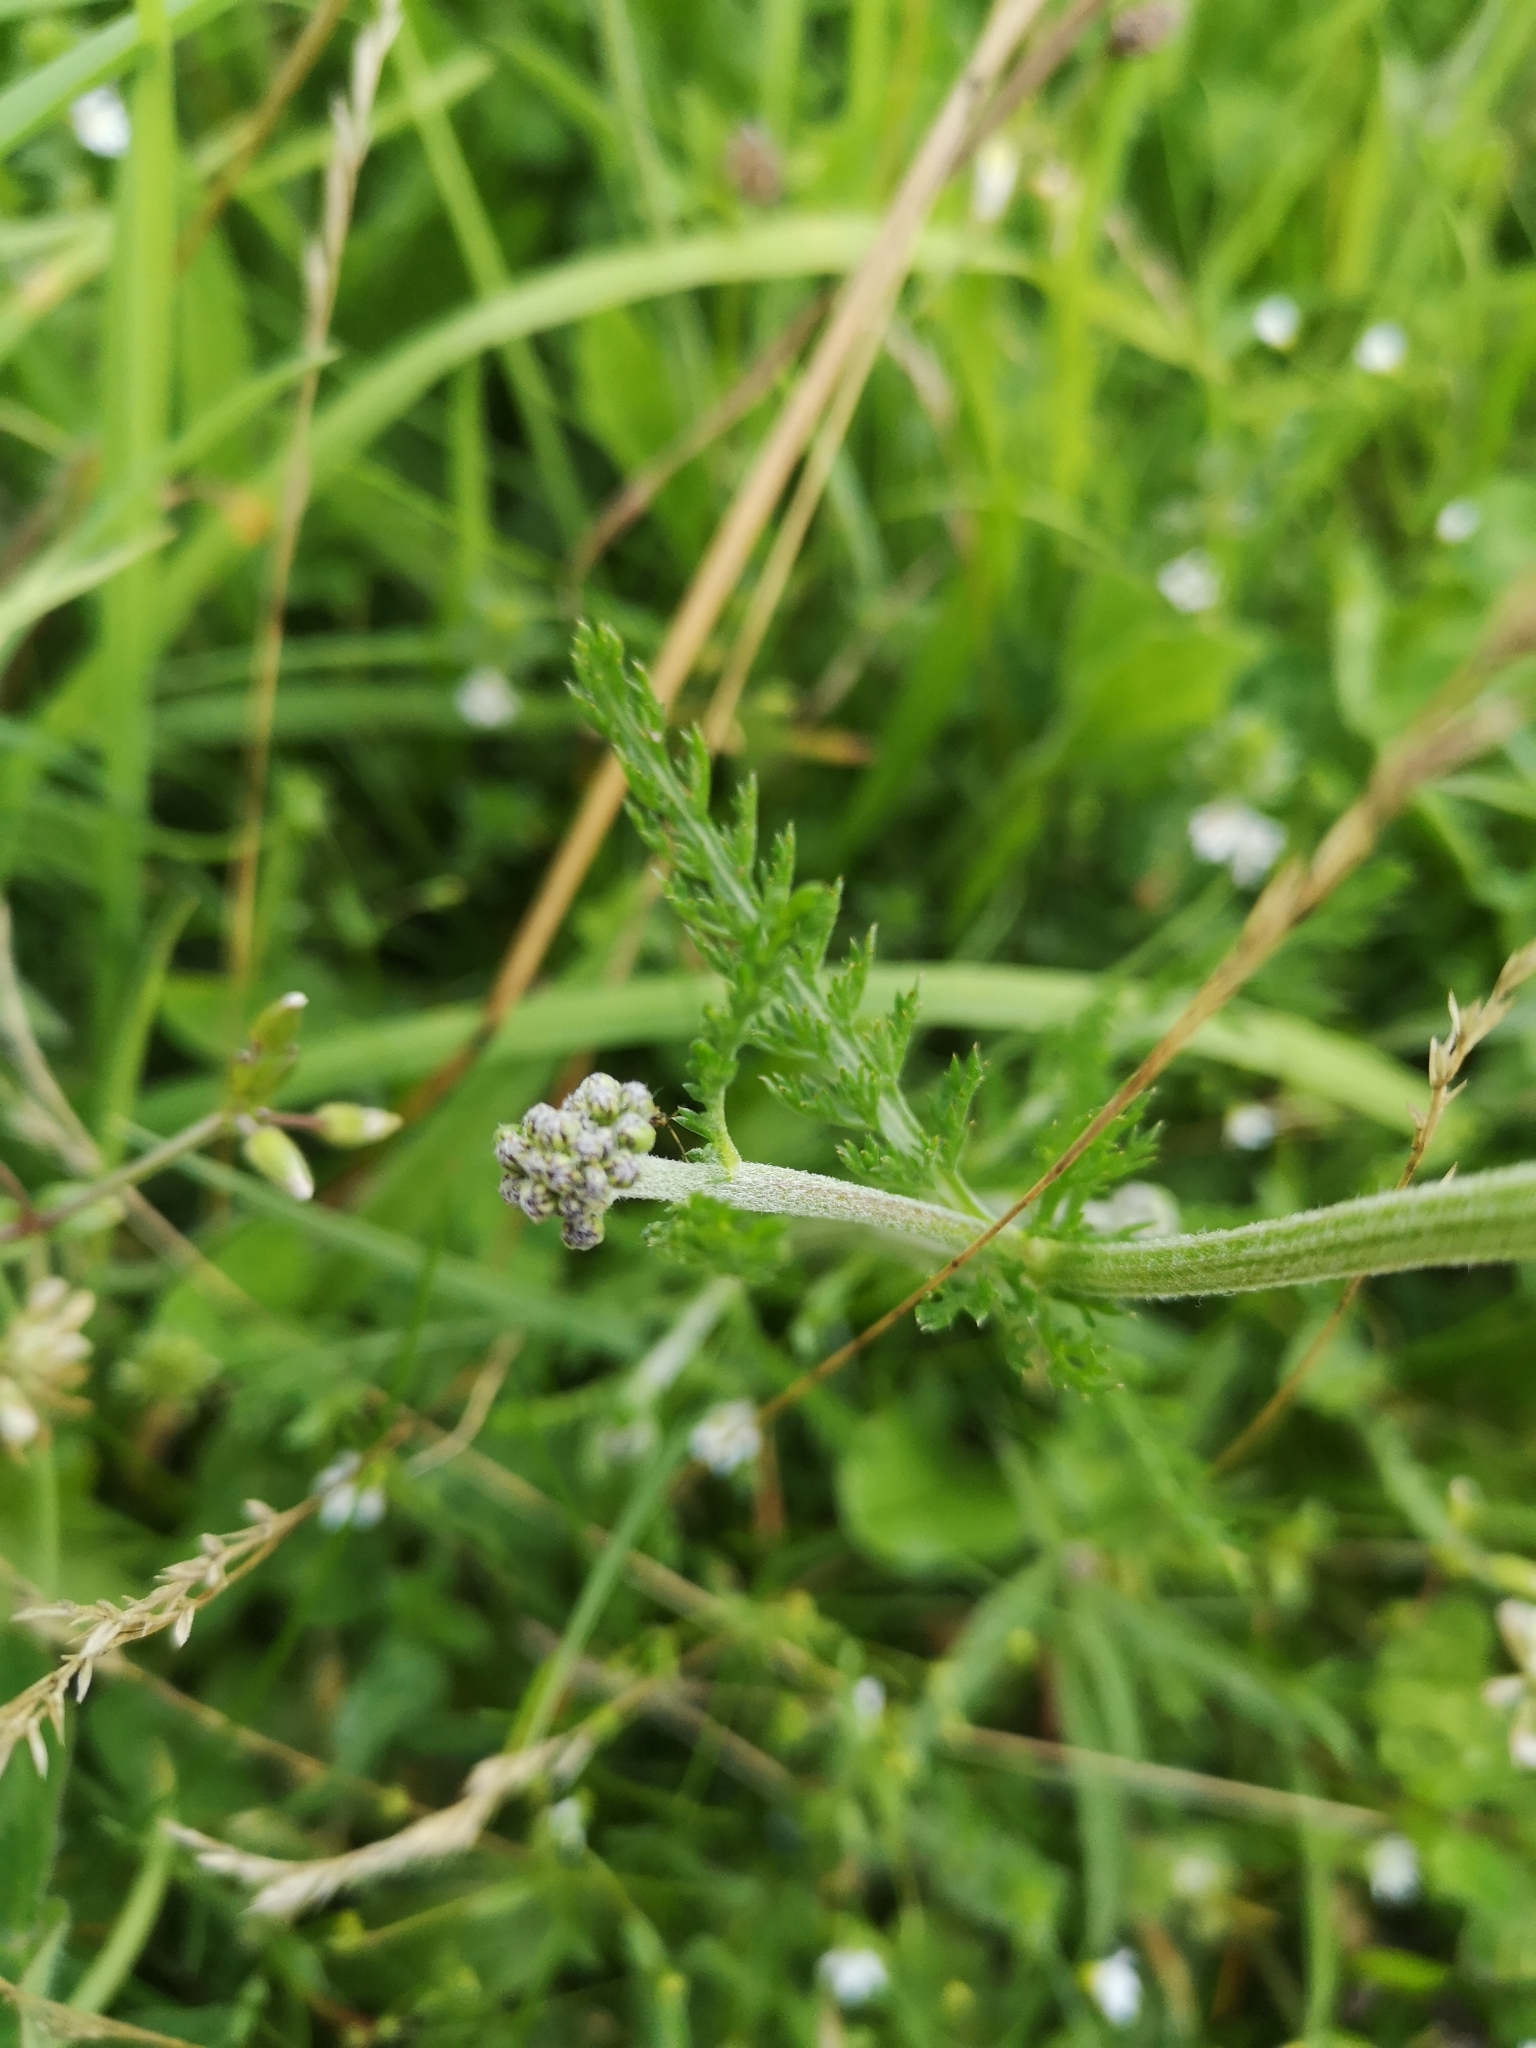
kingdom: Plantae
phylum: Tracheophyta
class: Magnoliopsida
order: Asterales
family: Asteraceae
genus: Achillea
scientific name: Achillea millefolium
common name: Yarrow
